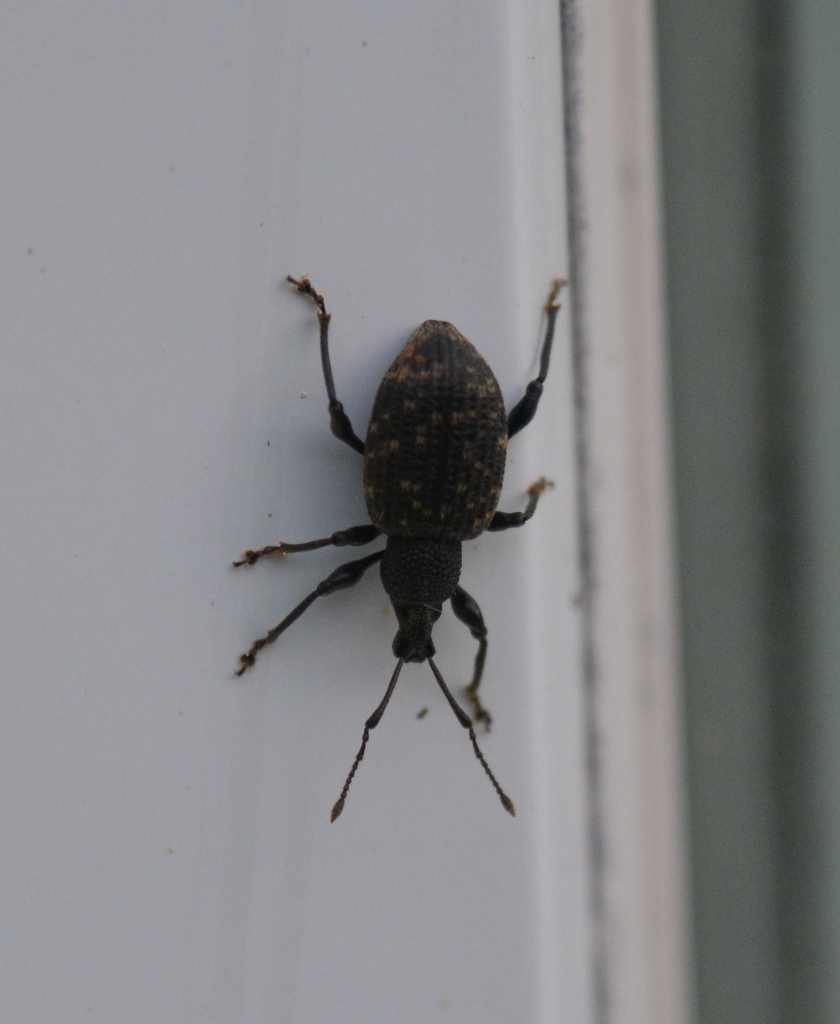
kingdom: Animalia
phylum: Arthropoda
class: Insecta
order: Coleoptera
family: Curculionidae
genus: Otiorhynchus
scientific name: Otiorhynchus sulcatus
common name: Black vine weevil
